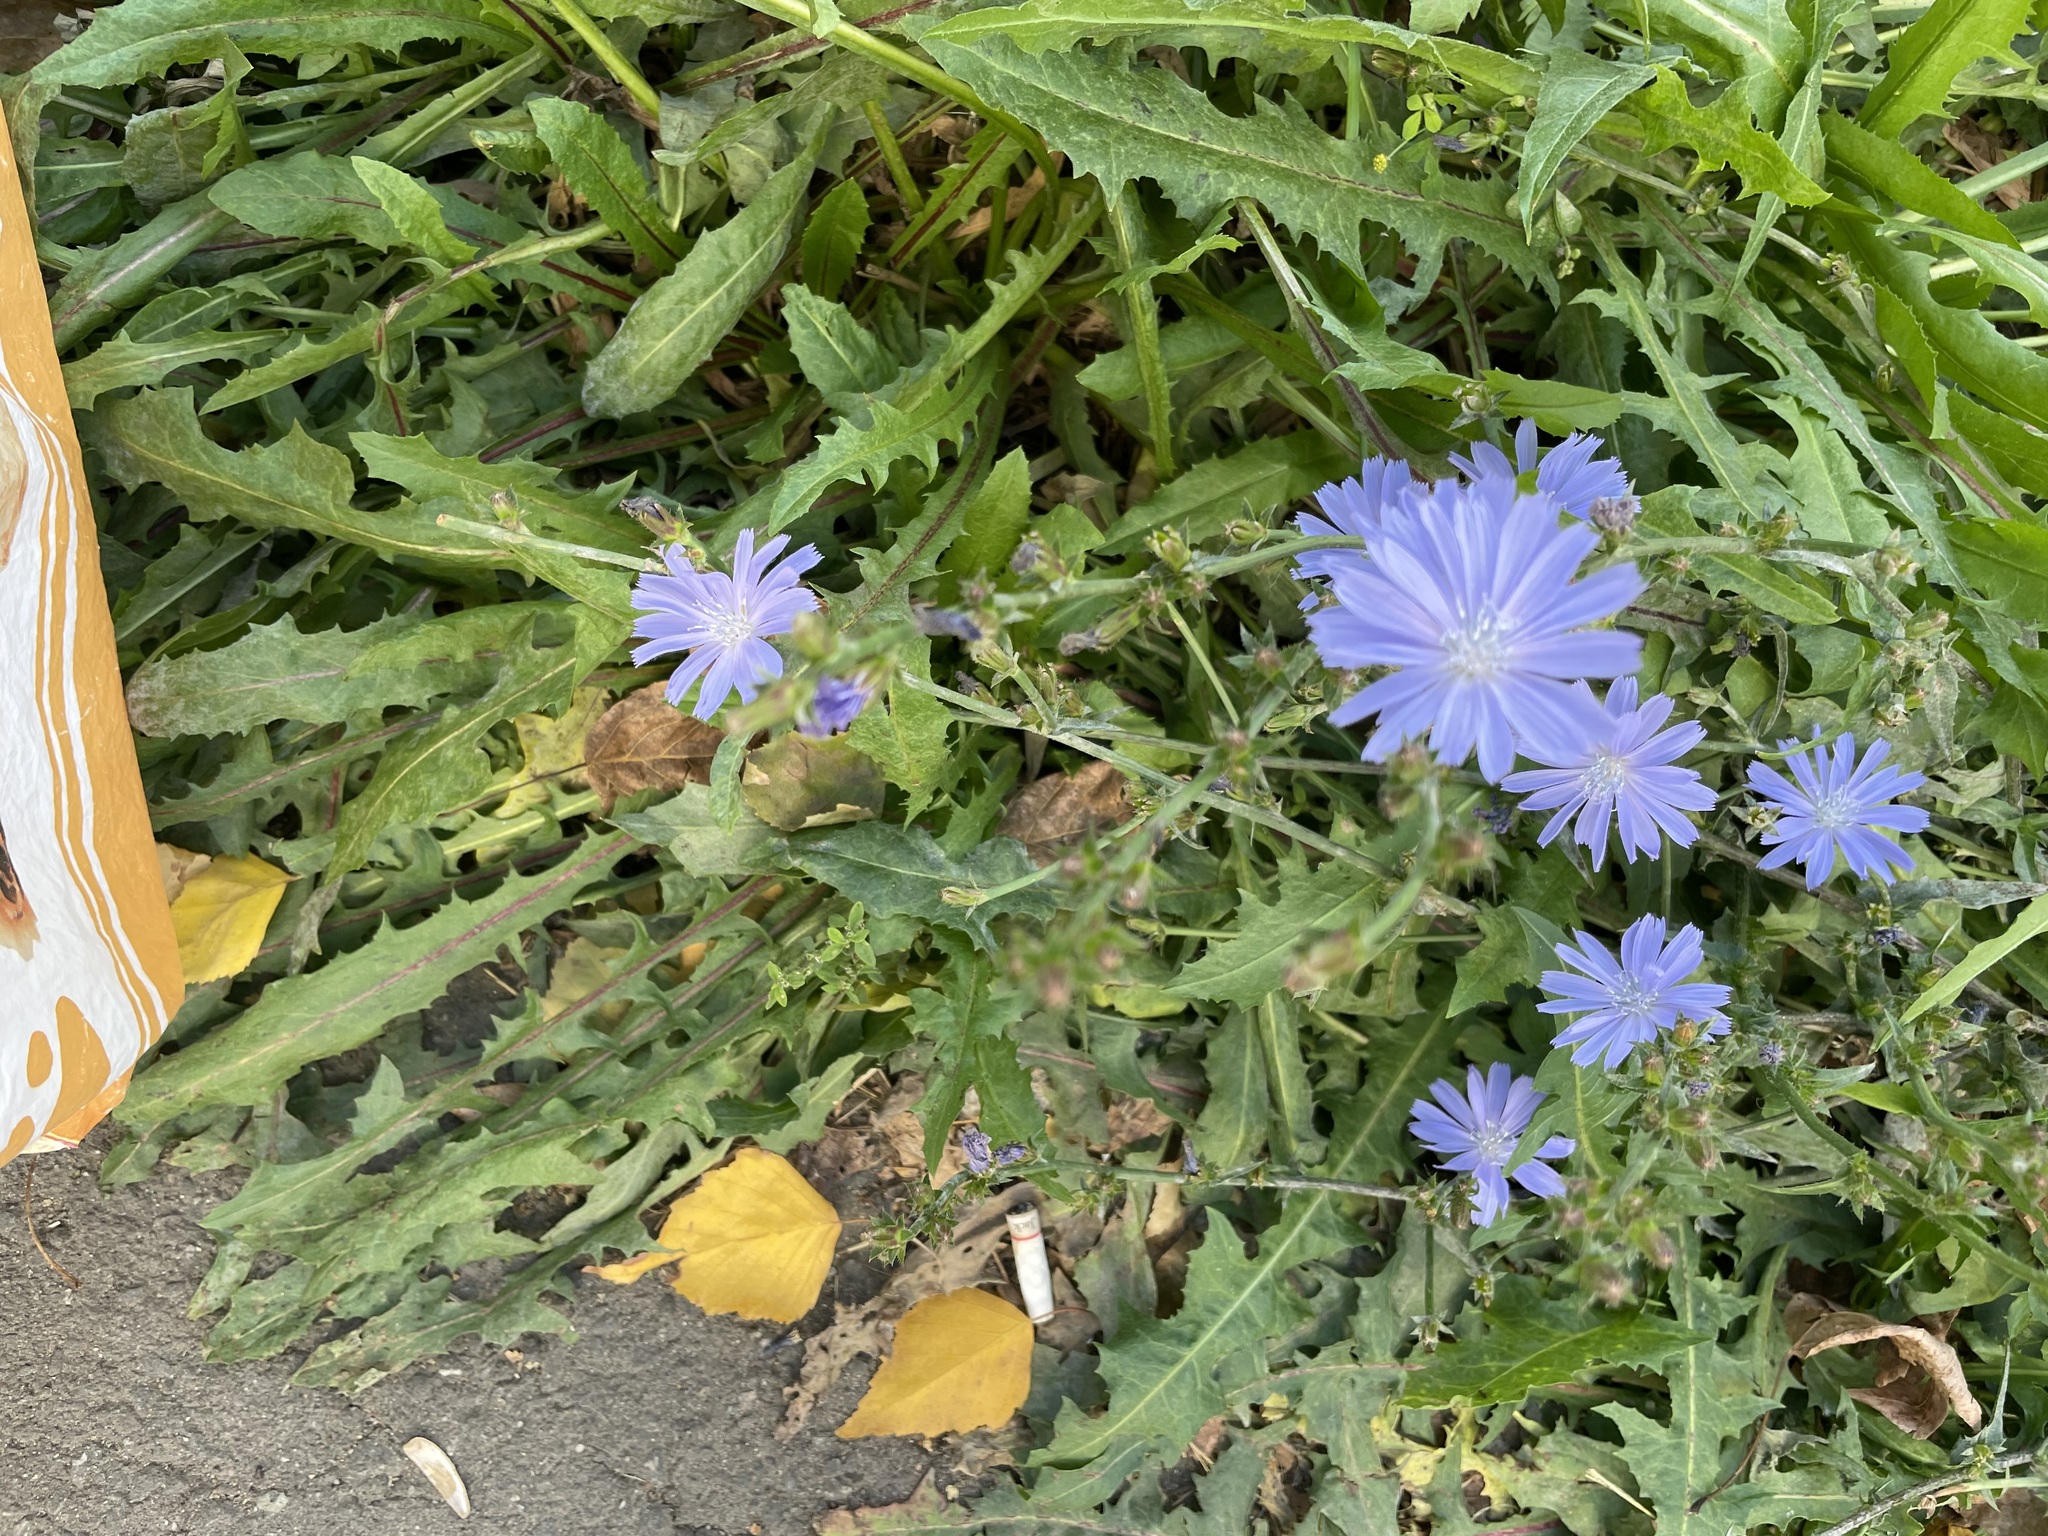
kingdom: Plantae
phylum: Tracheophyta
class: Magnoliopsida
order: Asterales
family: Asteraceae
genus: Cichorium
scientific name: Cichorium intybus
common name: Chicory
